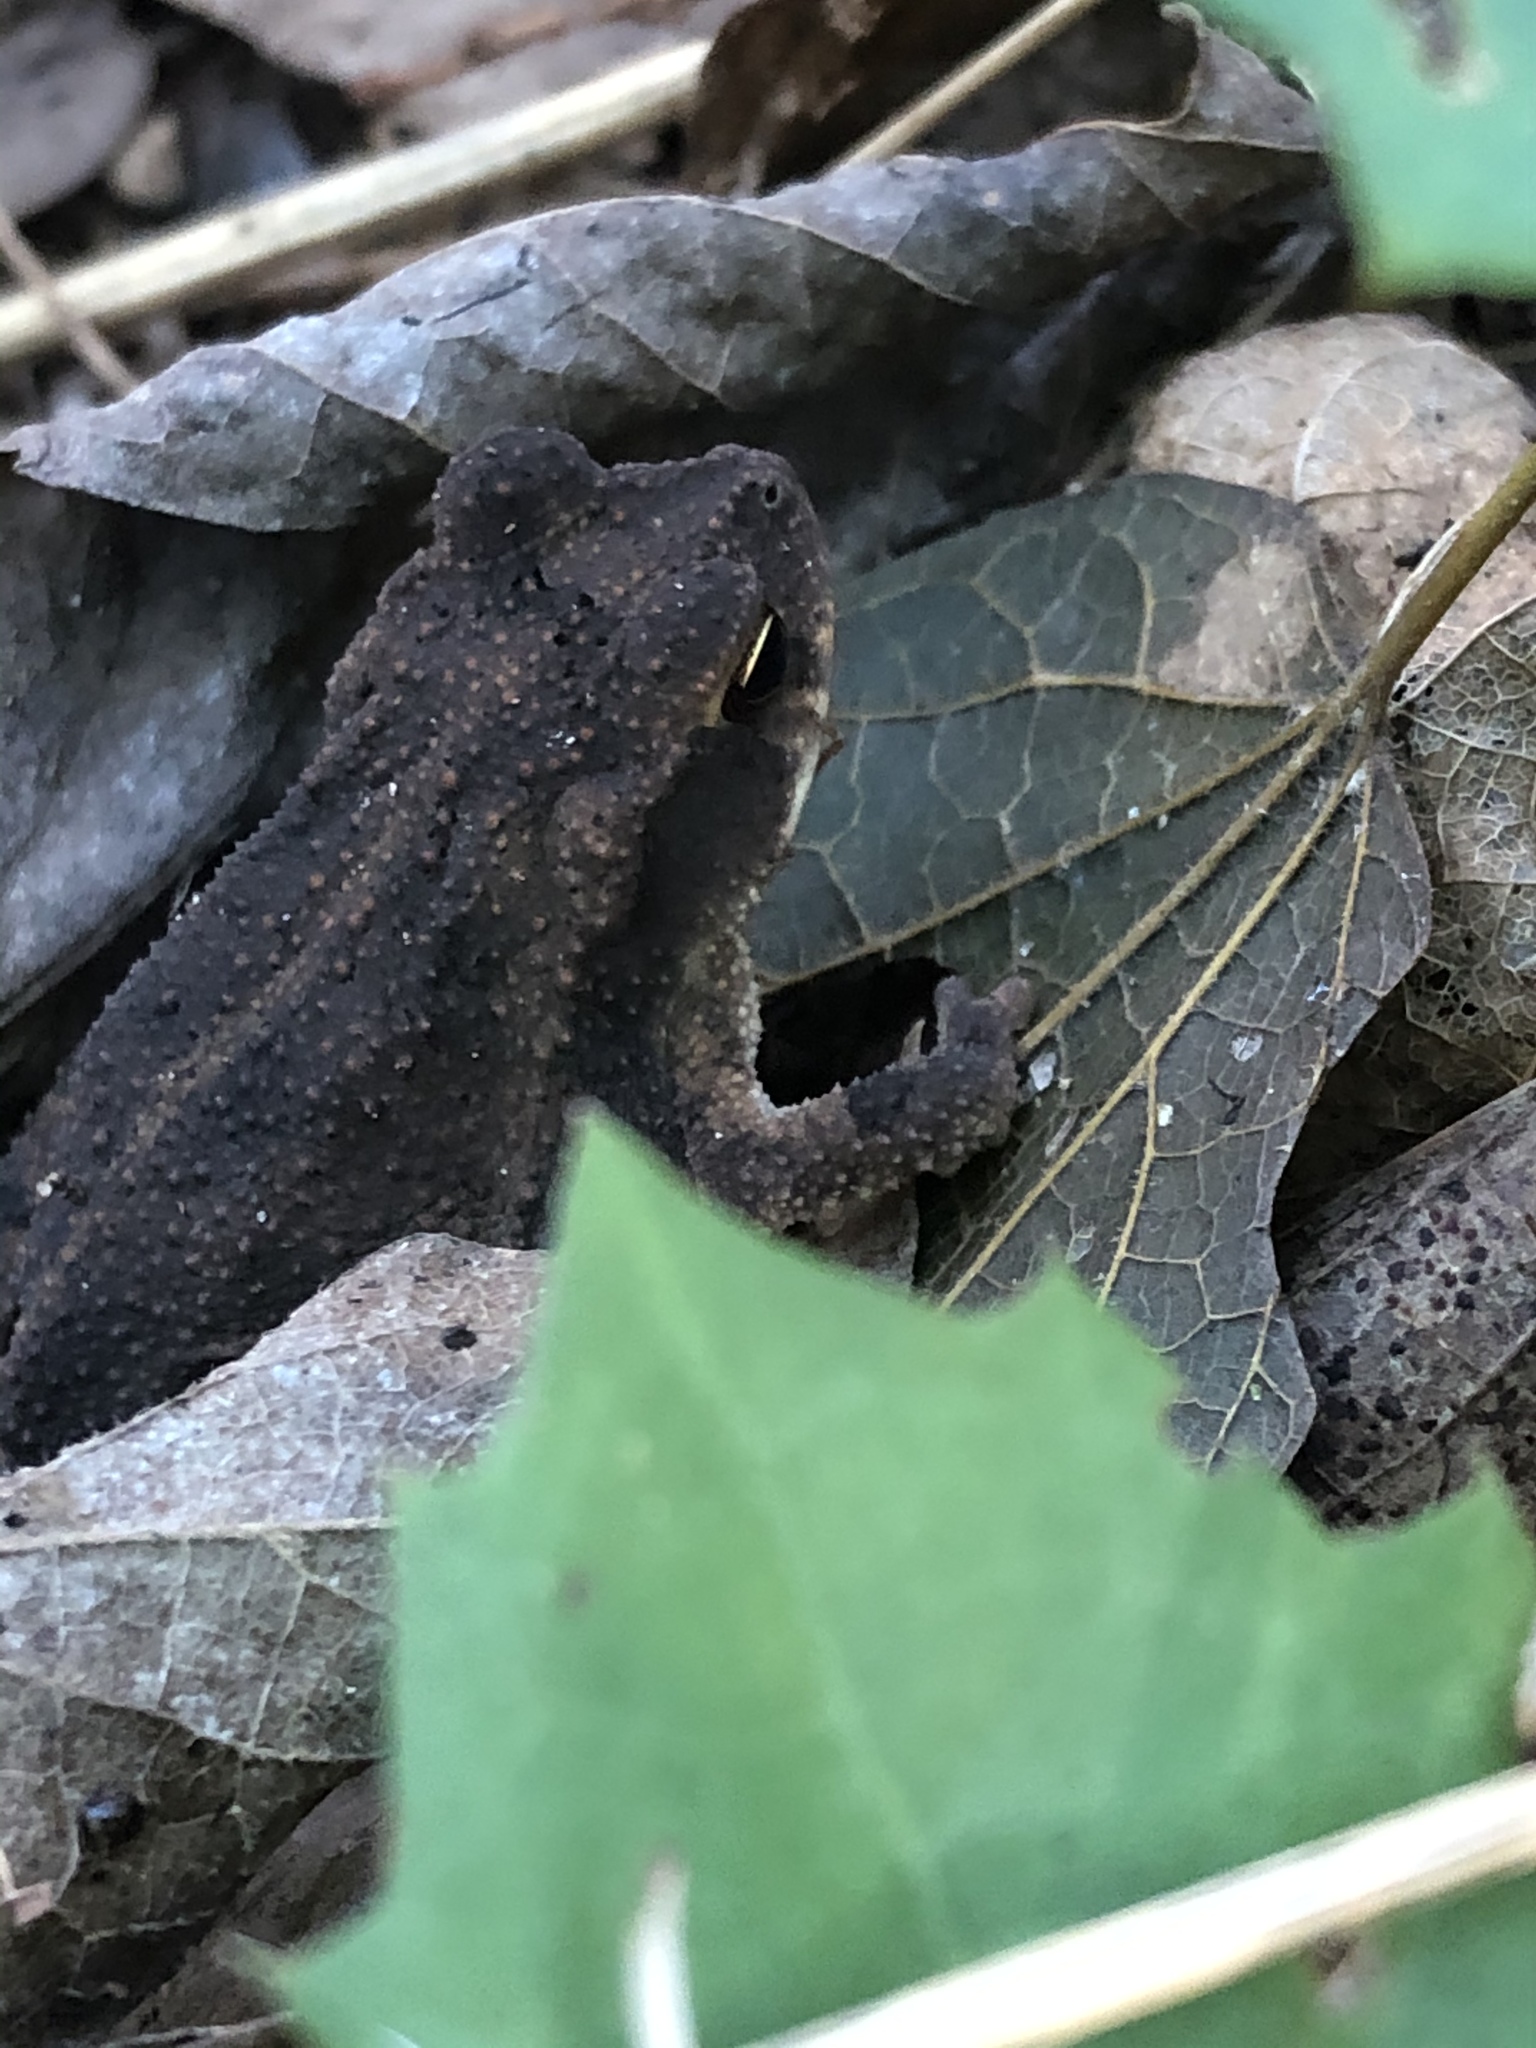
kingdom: Animalia
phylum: Chordata
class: Amphibia
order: Anura
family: Bufonidae
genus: Incilius
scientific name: Incilius nebulifer
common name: Gulf coast toad
